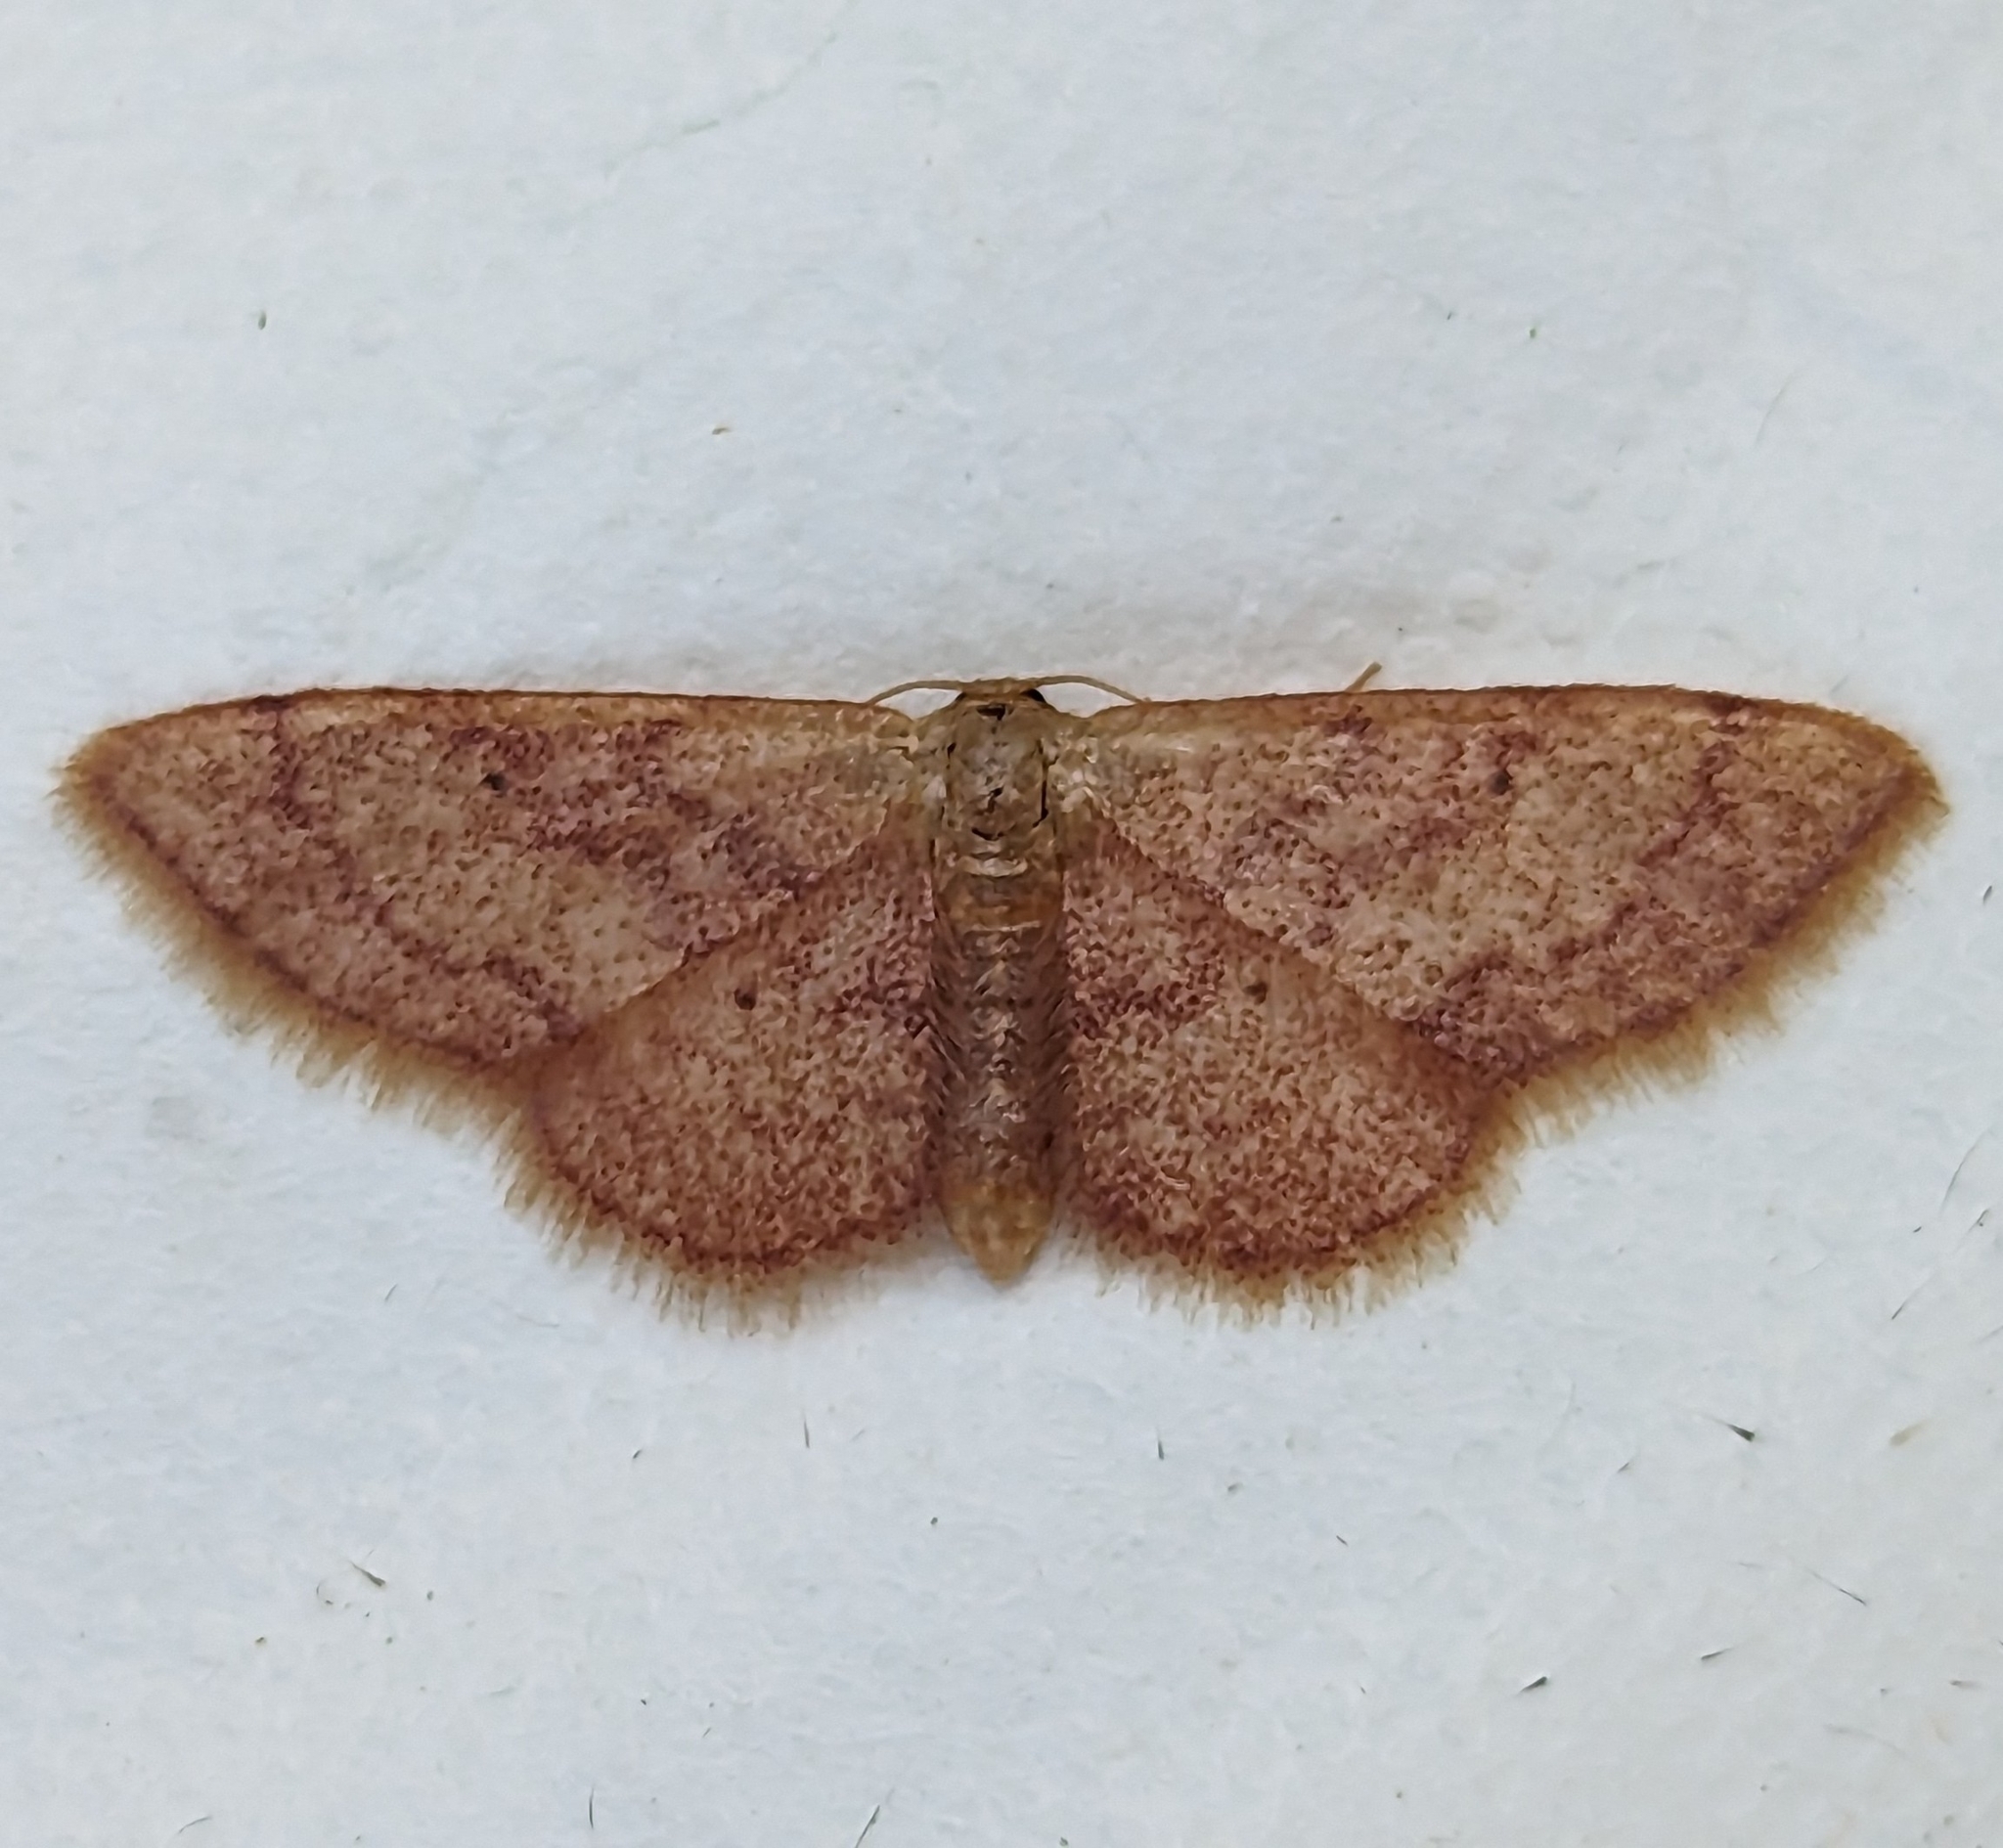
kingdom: Animalia
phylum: Arthropoda
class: Insecta
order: Lepidoptera
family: Geometridae
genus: Idaea
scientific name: Idaea demissaria
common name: Red-bordered wave
